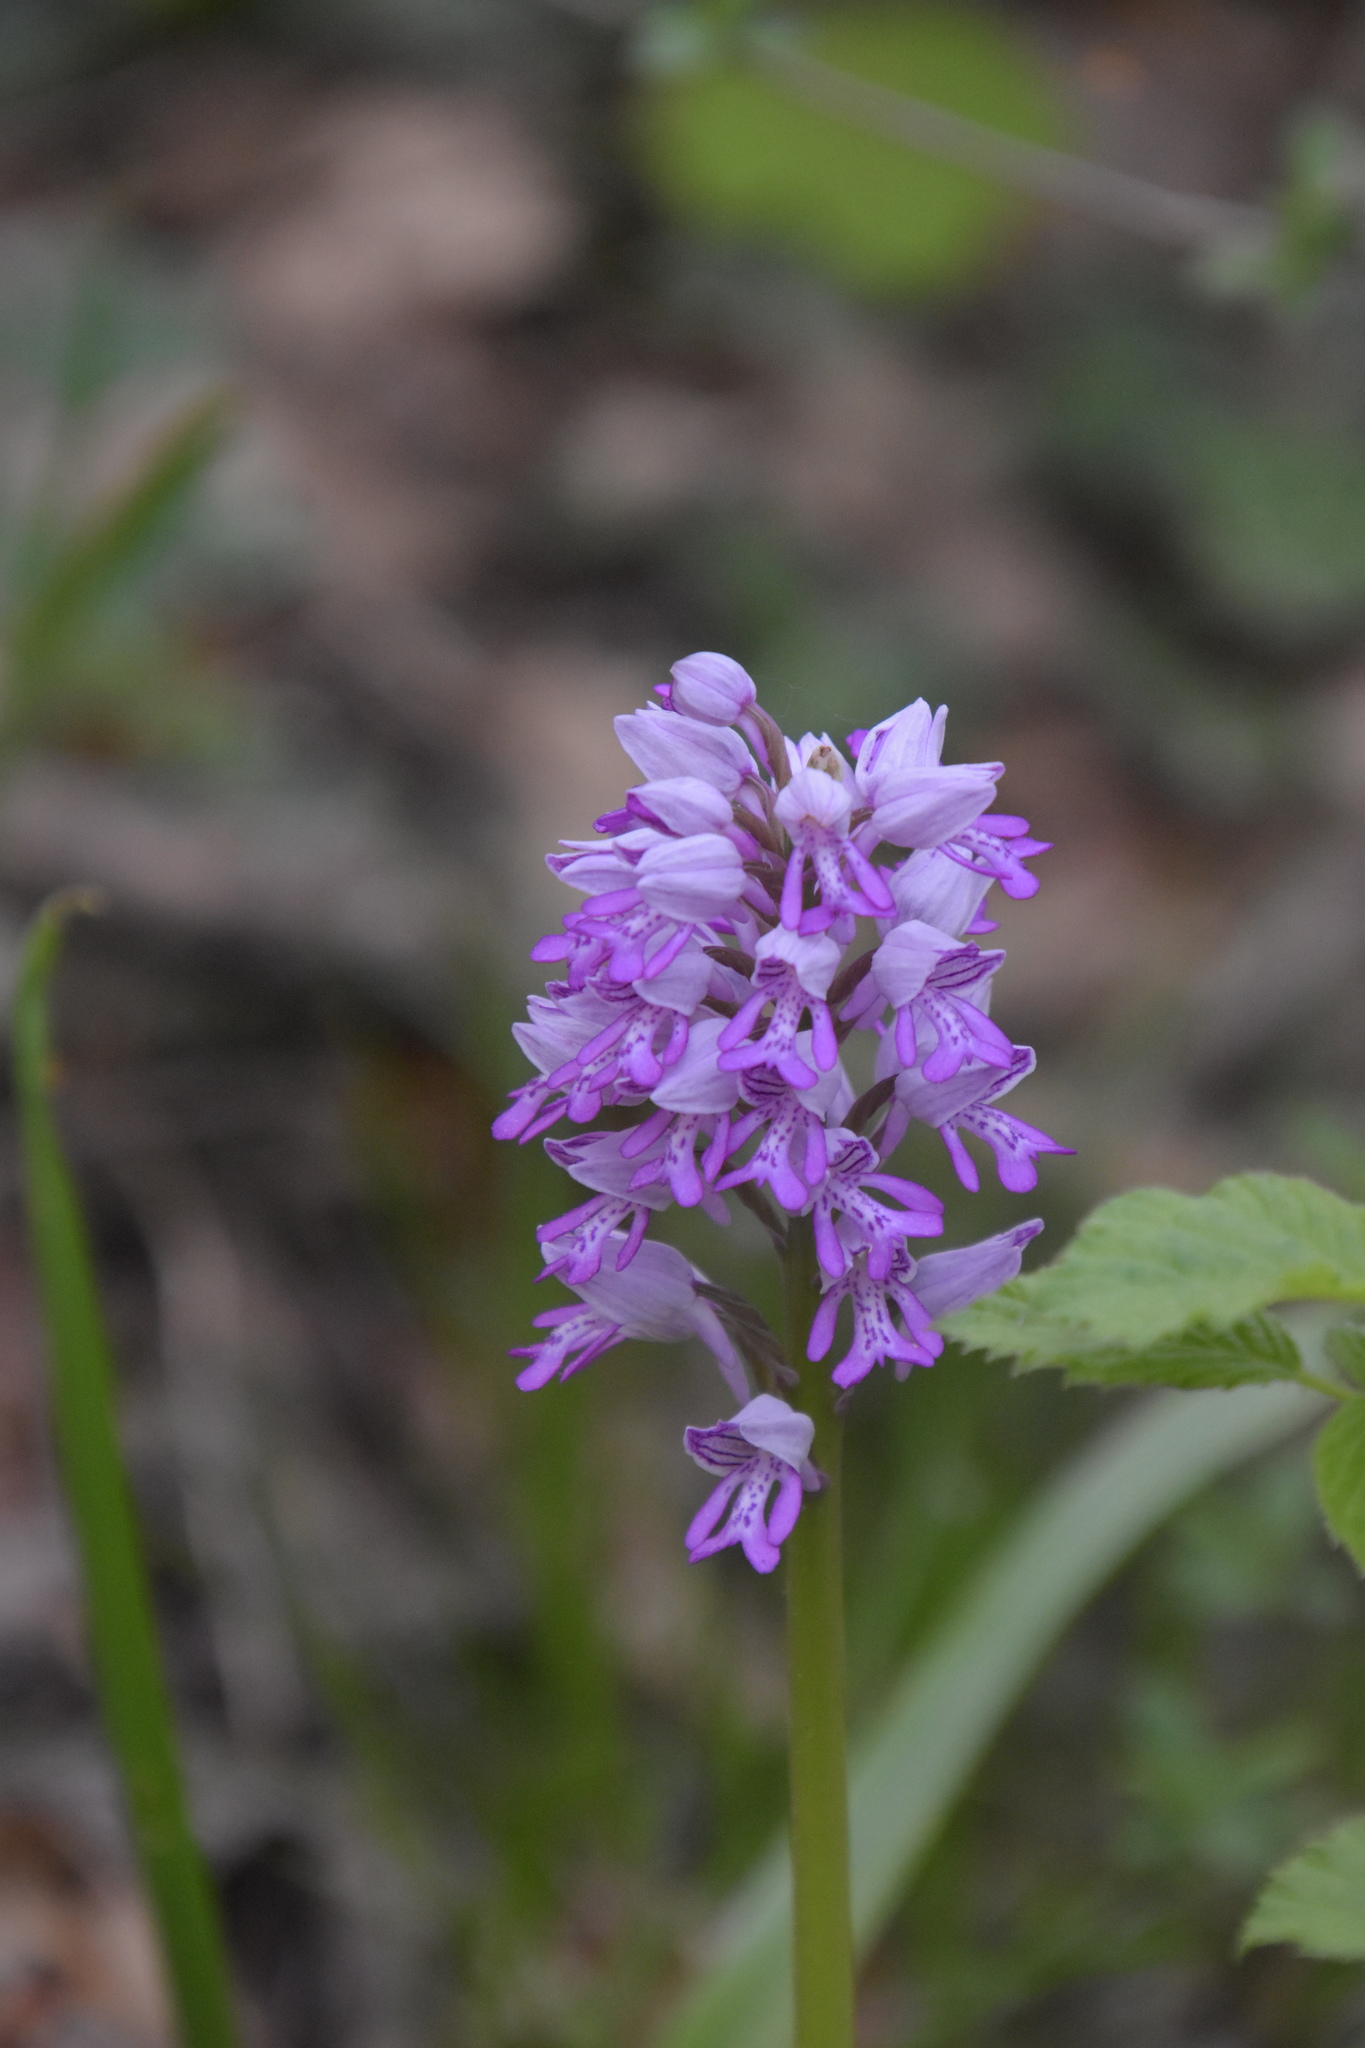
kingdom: Plantae
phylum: Tracheophyta
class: Liliopsida
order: Asparagales
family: Orchidaceae
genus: Orchis
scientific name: Orchis militaris
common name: Military orchid
